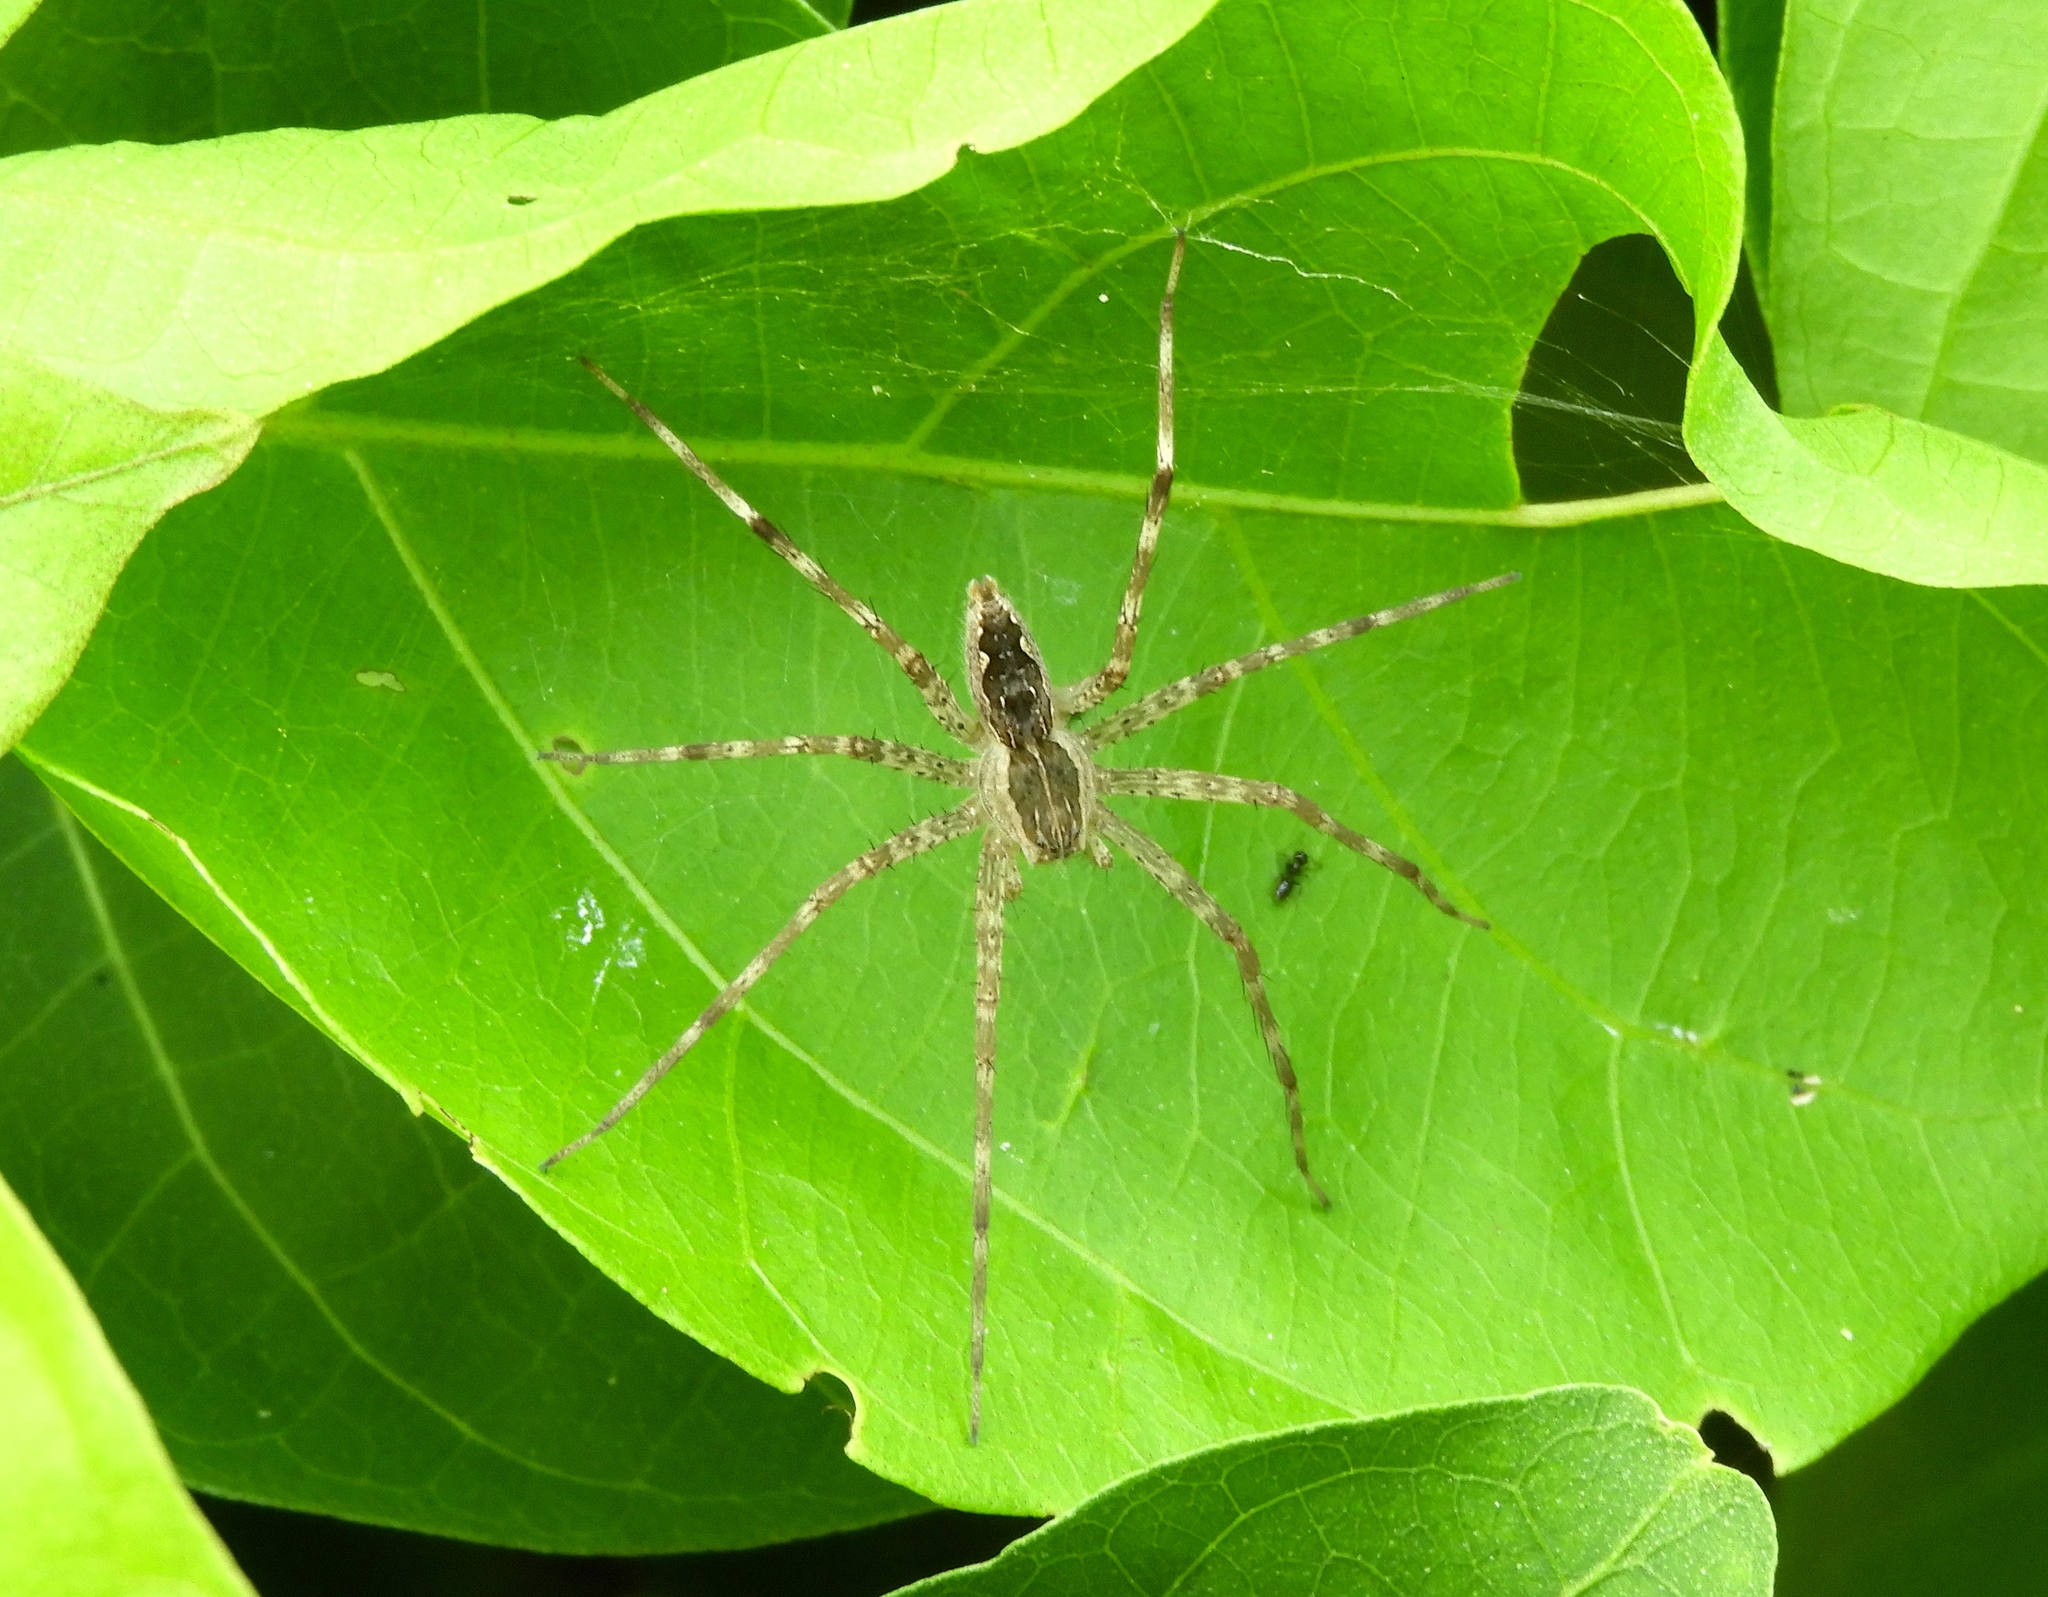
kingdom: Animalia
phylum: Arthropoda
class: Arachnida
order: Araneae
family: Pisauridae
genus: Tinus
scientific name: Tinus
